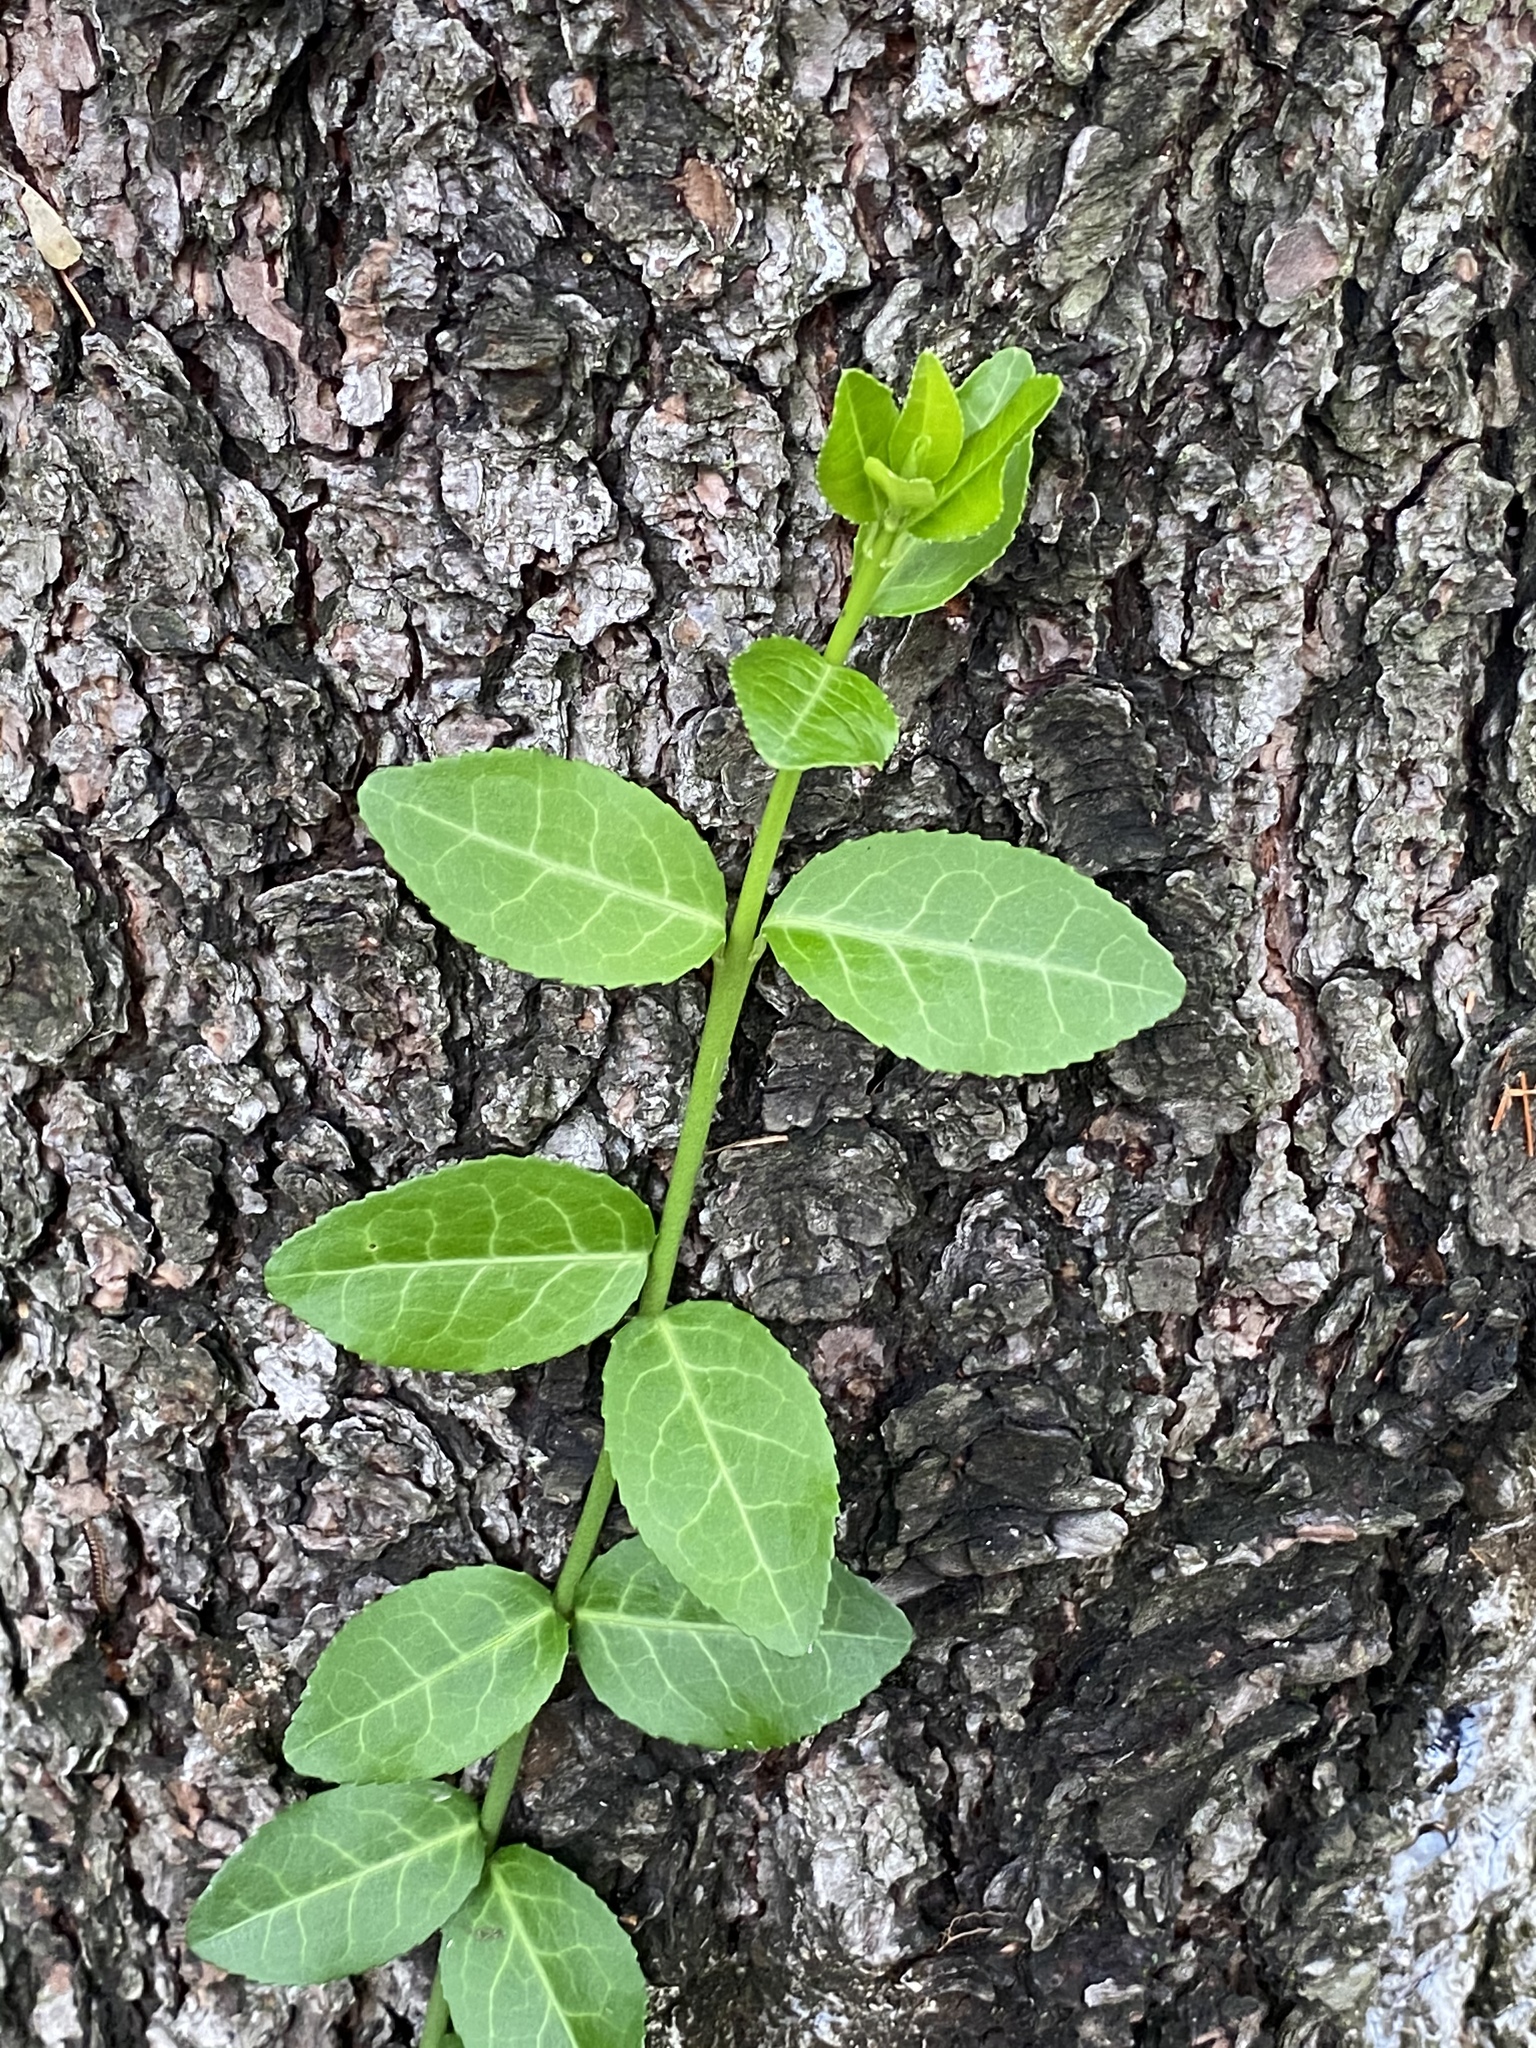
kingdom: Plantae
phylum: Tracheophyta
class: Magnoliopsida
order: Celastrales
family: Celastraceae
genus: Euonymus
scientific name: Euonymus fortunei
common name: Climbing euonymus
